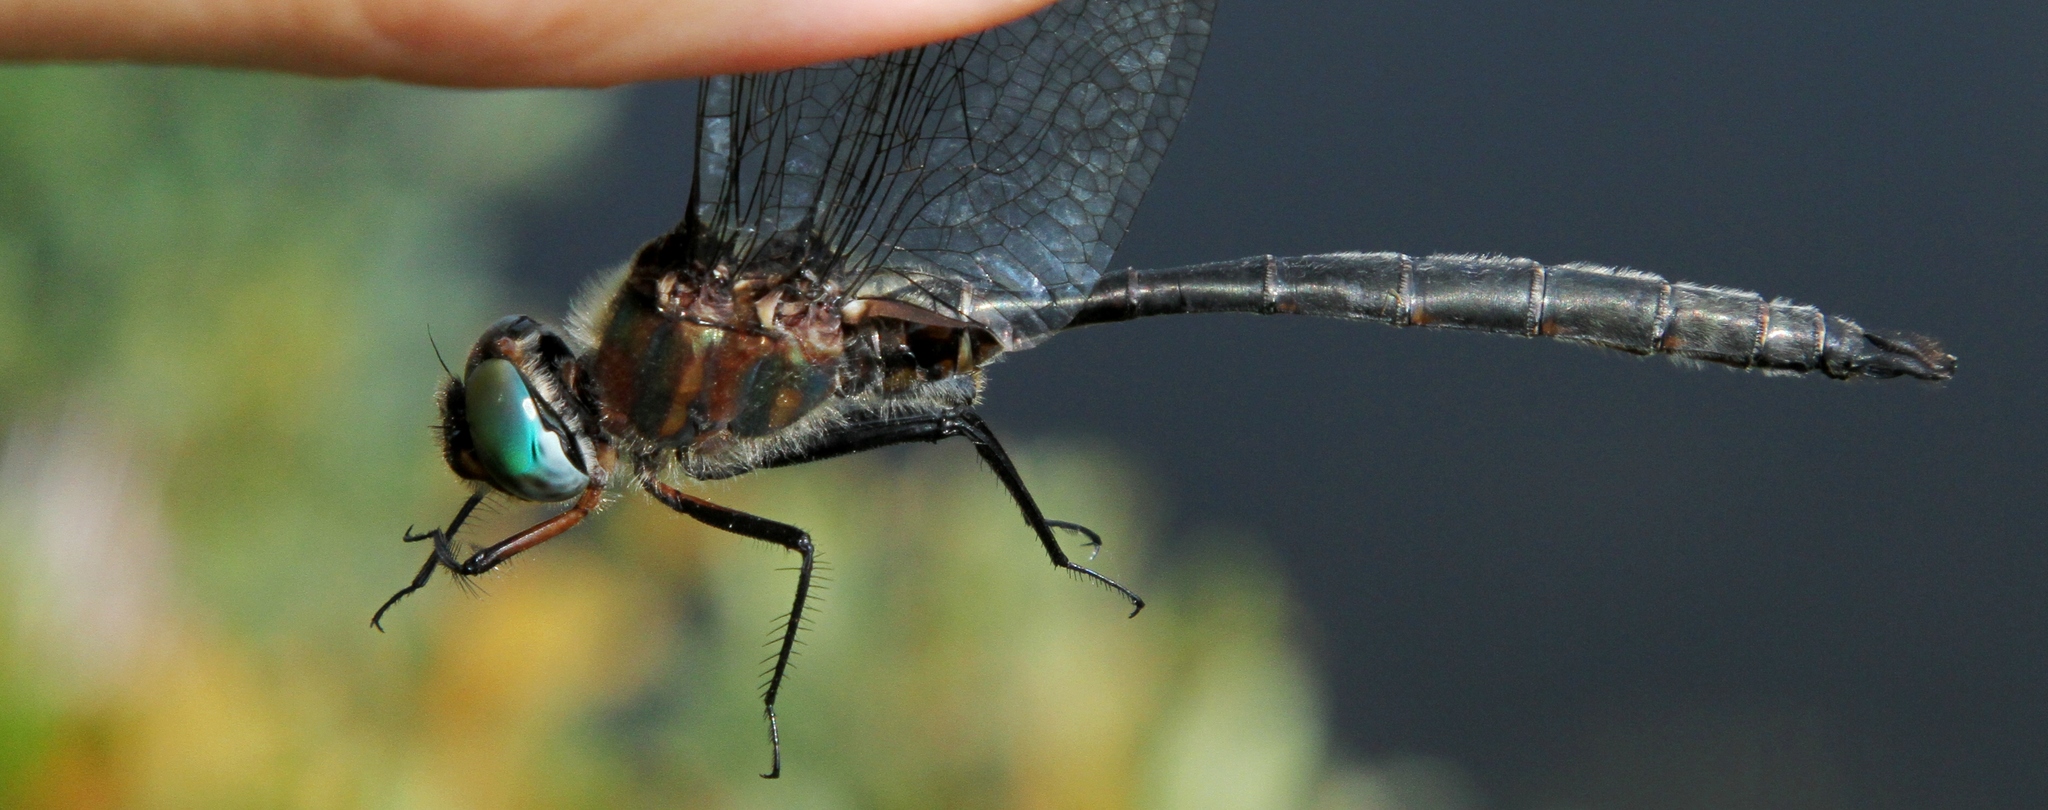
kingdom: Animalia
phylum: Arthropoda
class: Insecta
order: Odonata
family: Corduliidae
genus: Somatochlora
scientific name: Somatochlora williamsoni
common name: Williamson's emerald
